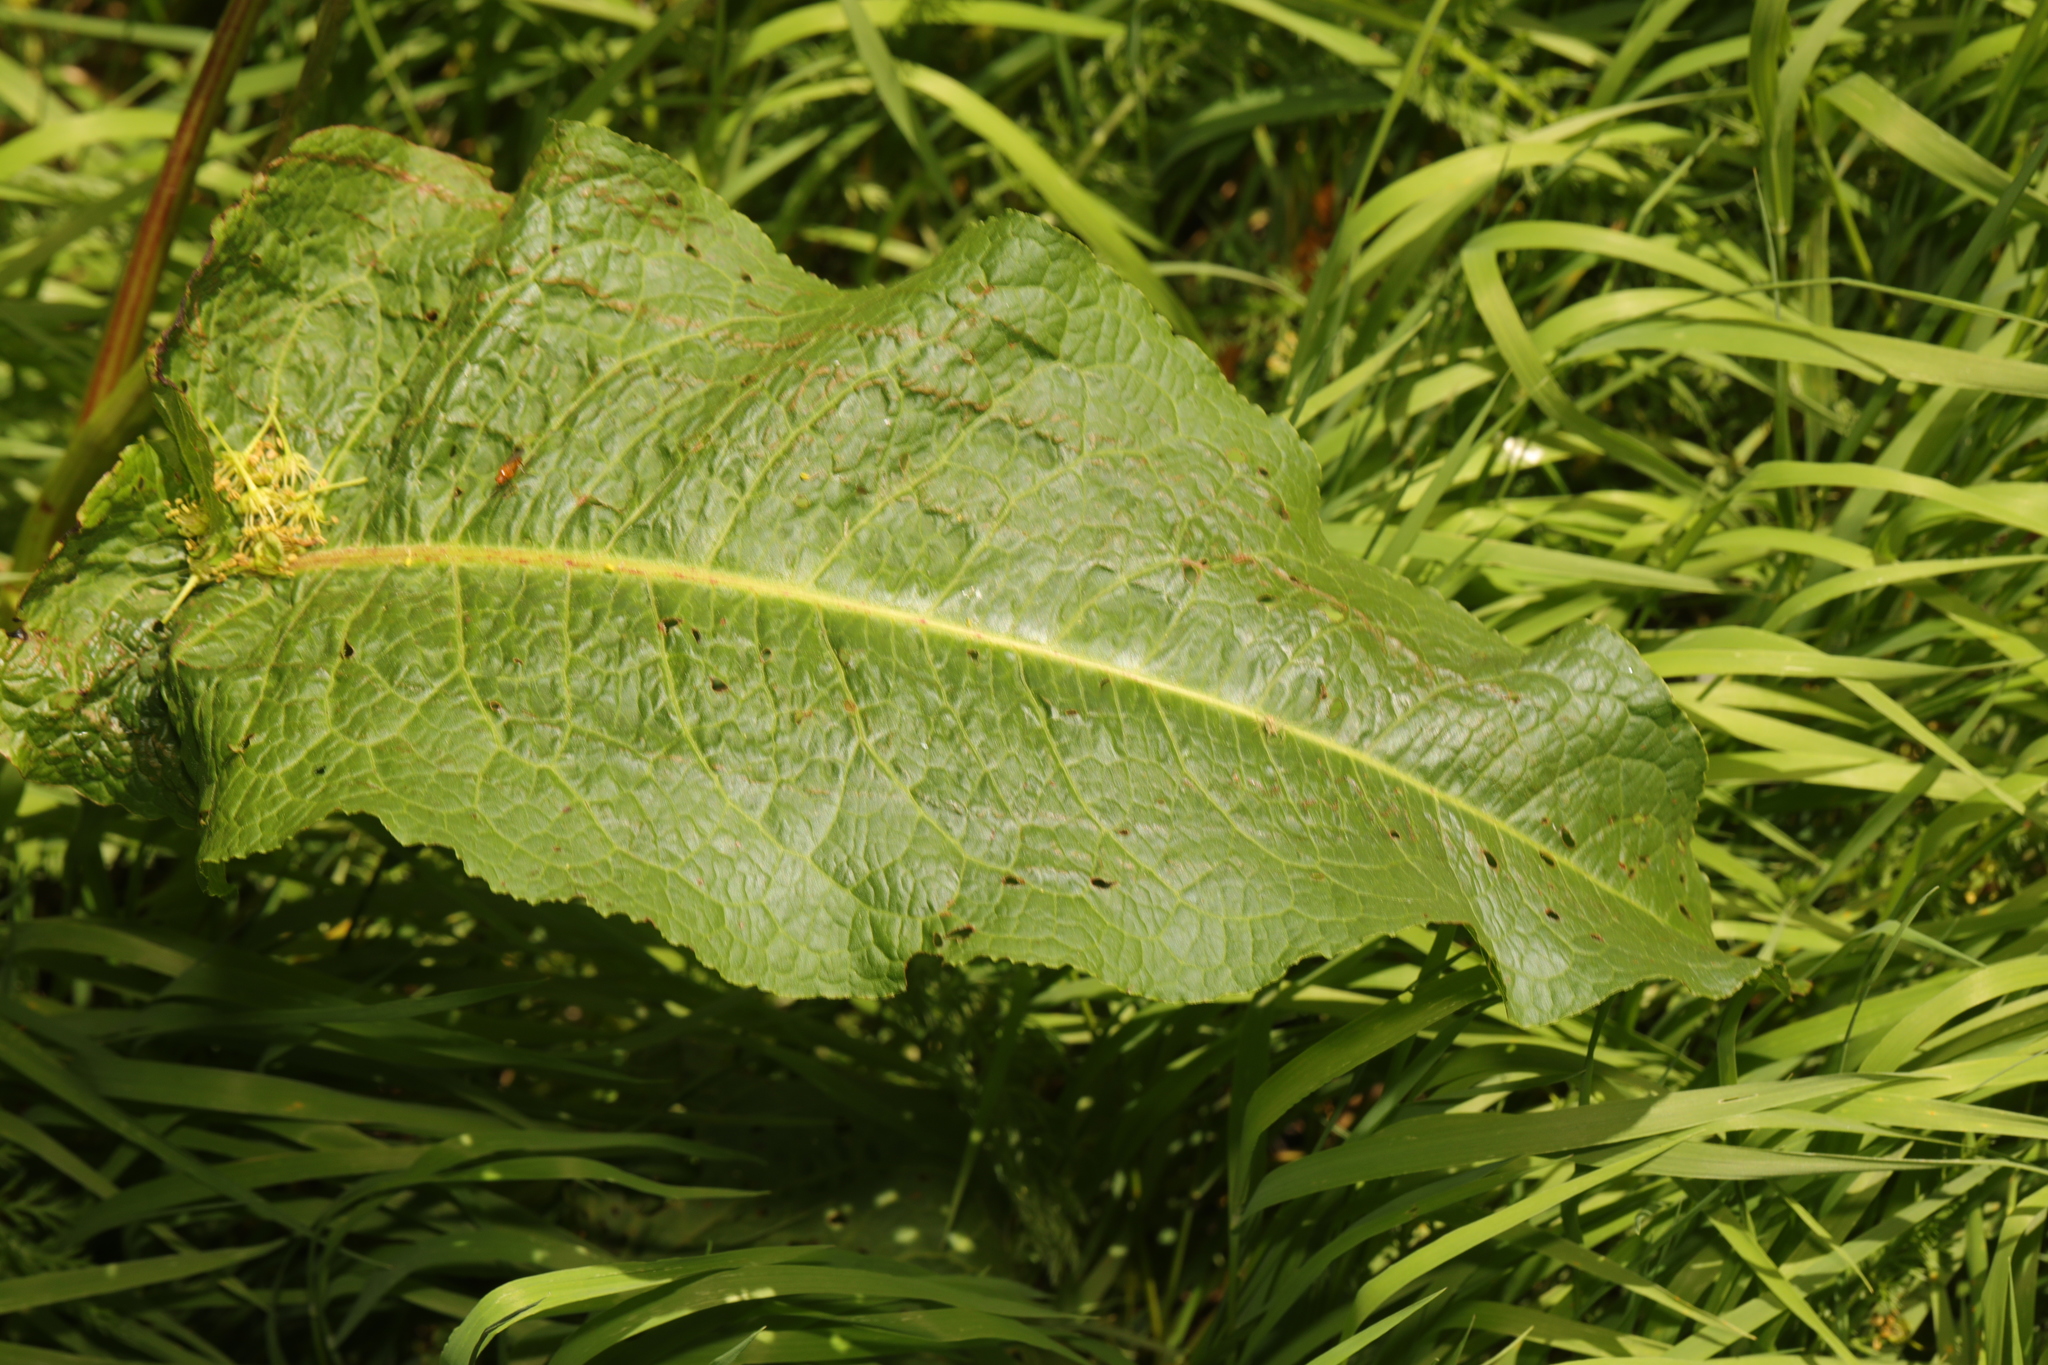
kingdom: Plantae
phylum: Tracheophyta
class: Magnoliopsida
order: Caryophyllales
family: Polygonaceae
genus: Rumex
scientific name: Rumex obtusifolius
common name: Bitter dock
